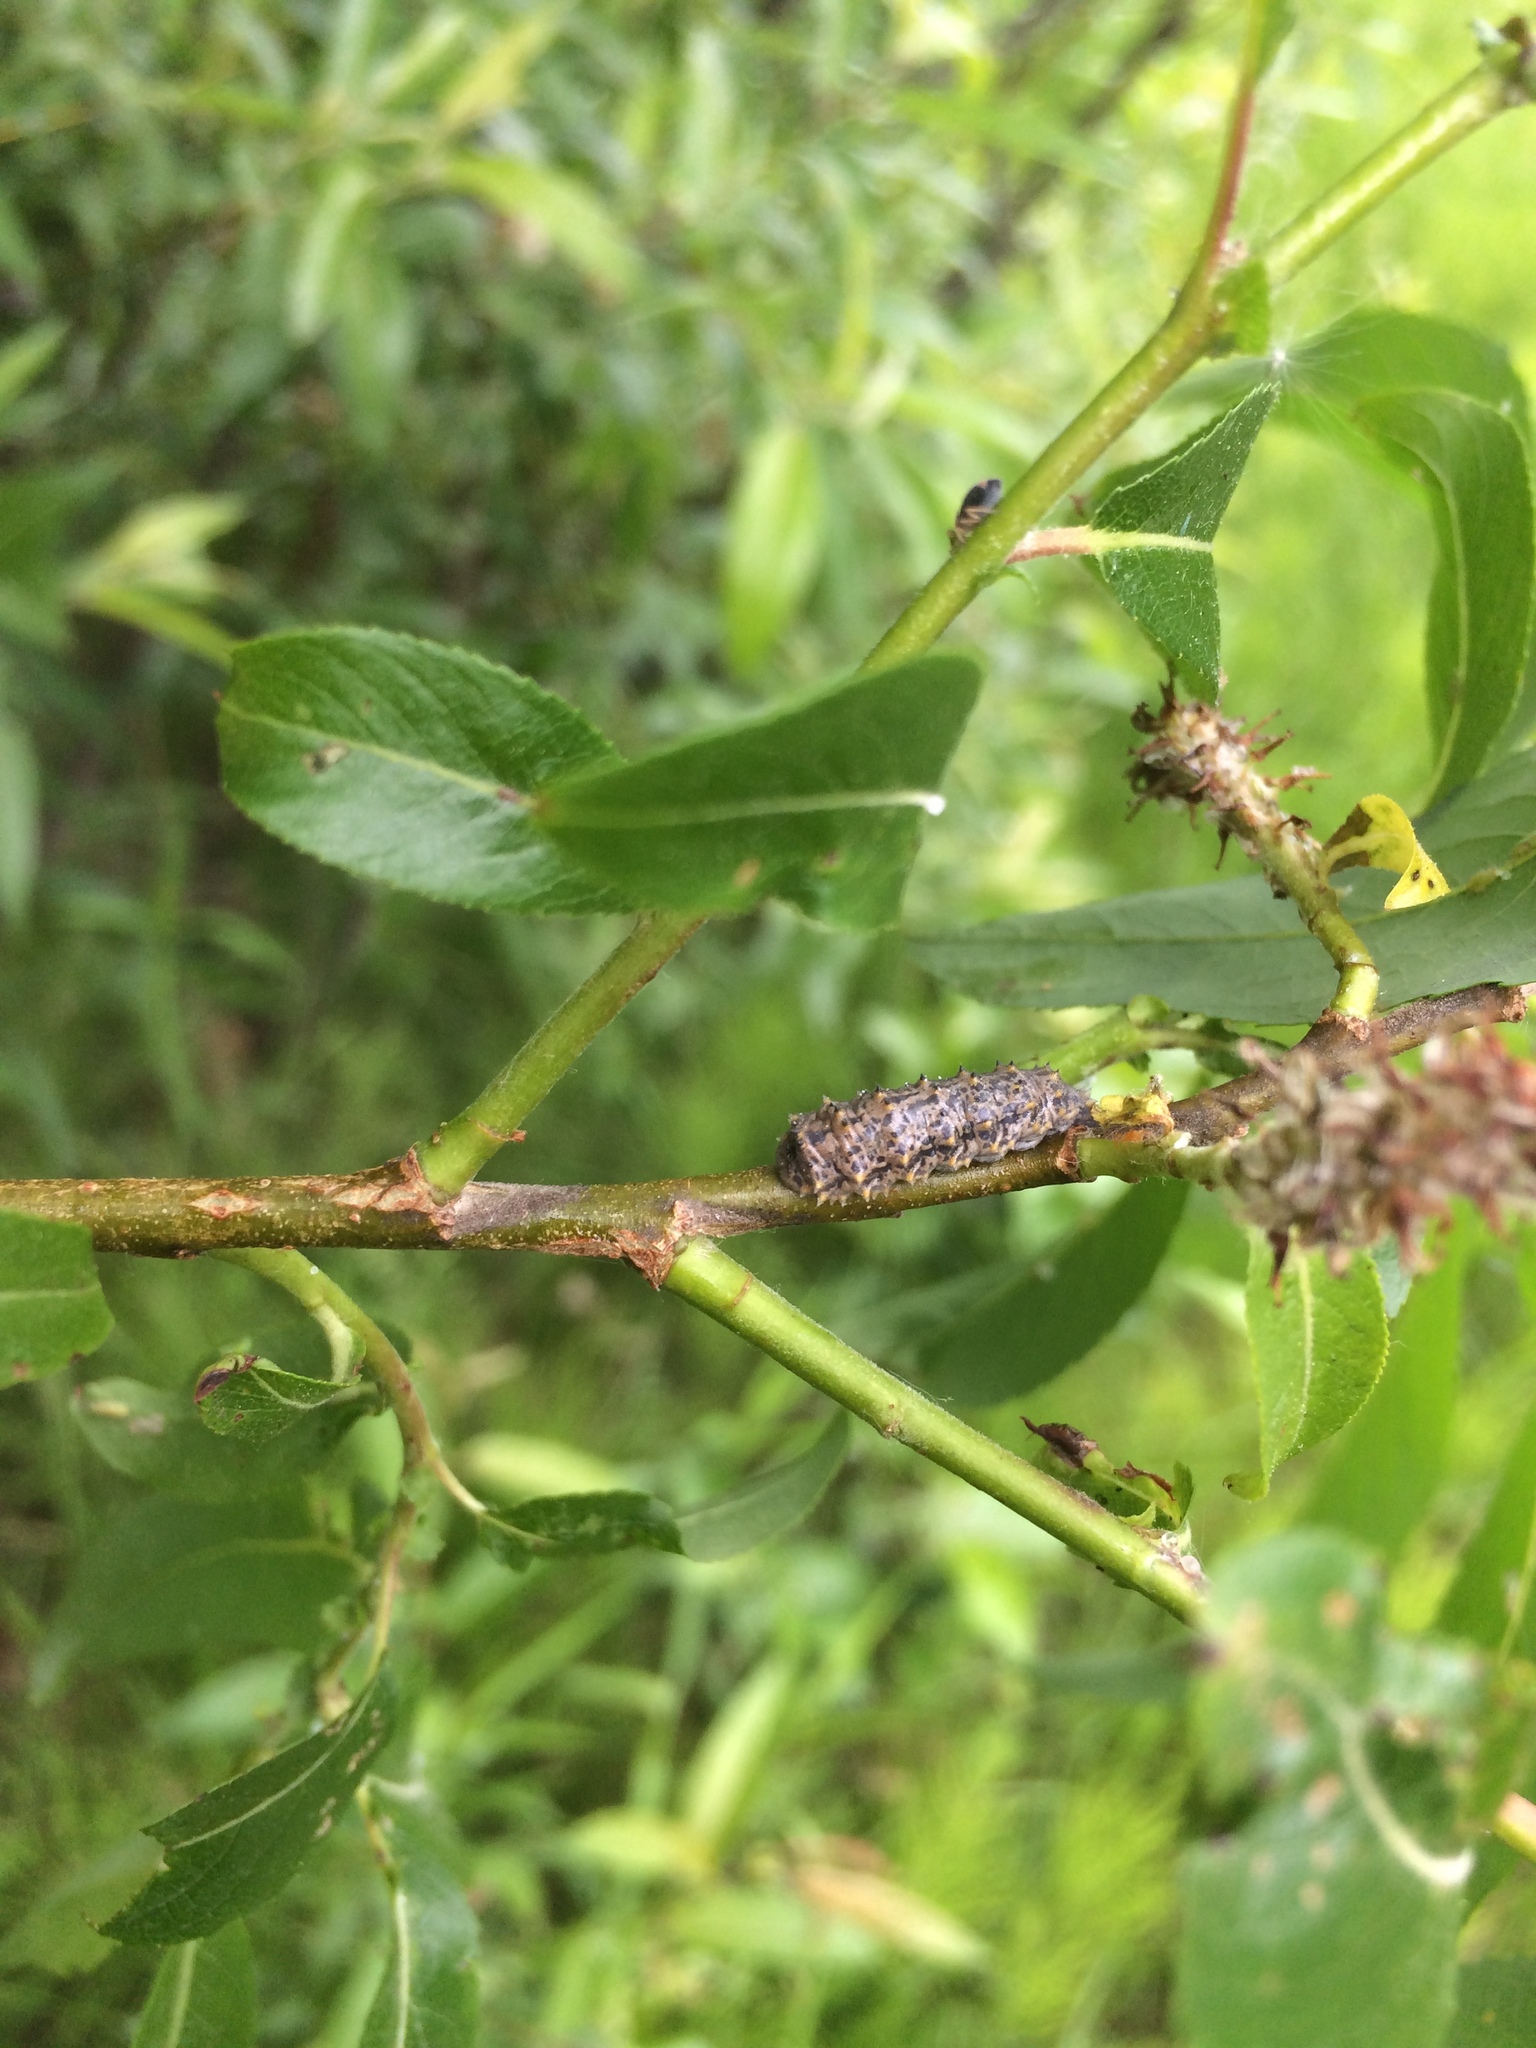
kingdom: Animalia
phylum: Arthropoda
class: Insecta
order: Diptera
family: Syrphidae
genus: Didea
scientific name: Didea fuscipes
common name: Undivided lucent
